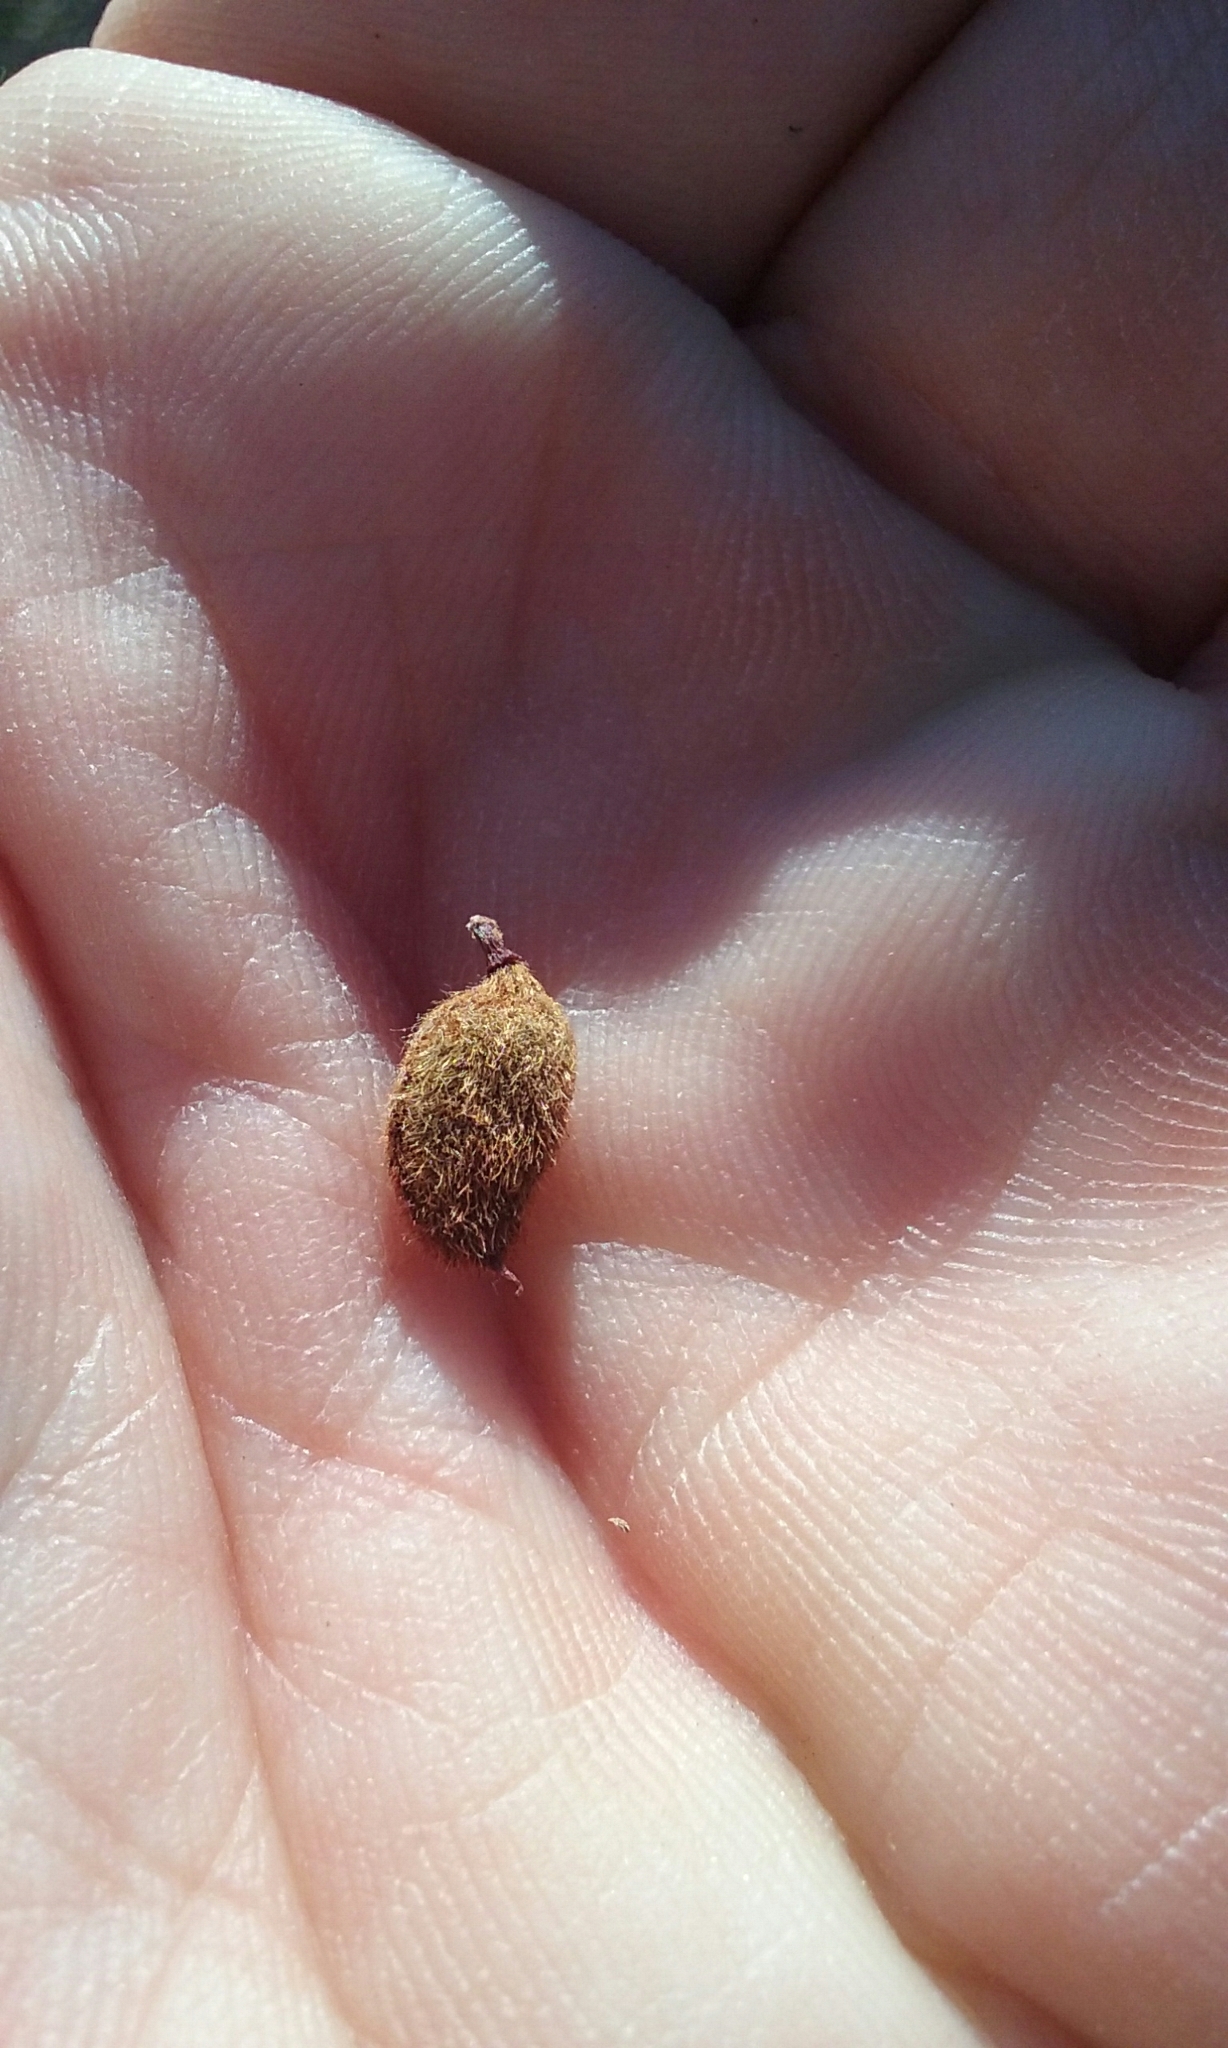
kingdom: Plantae
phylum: Tracheophyta
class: Magnoliopsida
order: Rosales
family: Rosaceae
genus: Prunus
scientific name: Prunus fasciculata
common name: Desert almond
